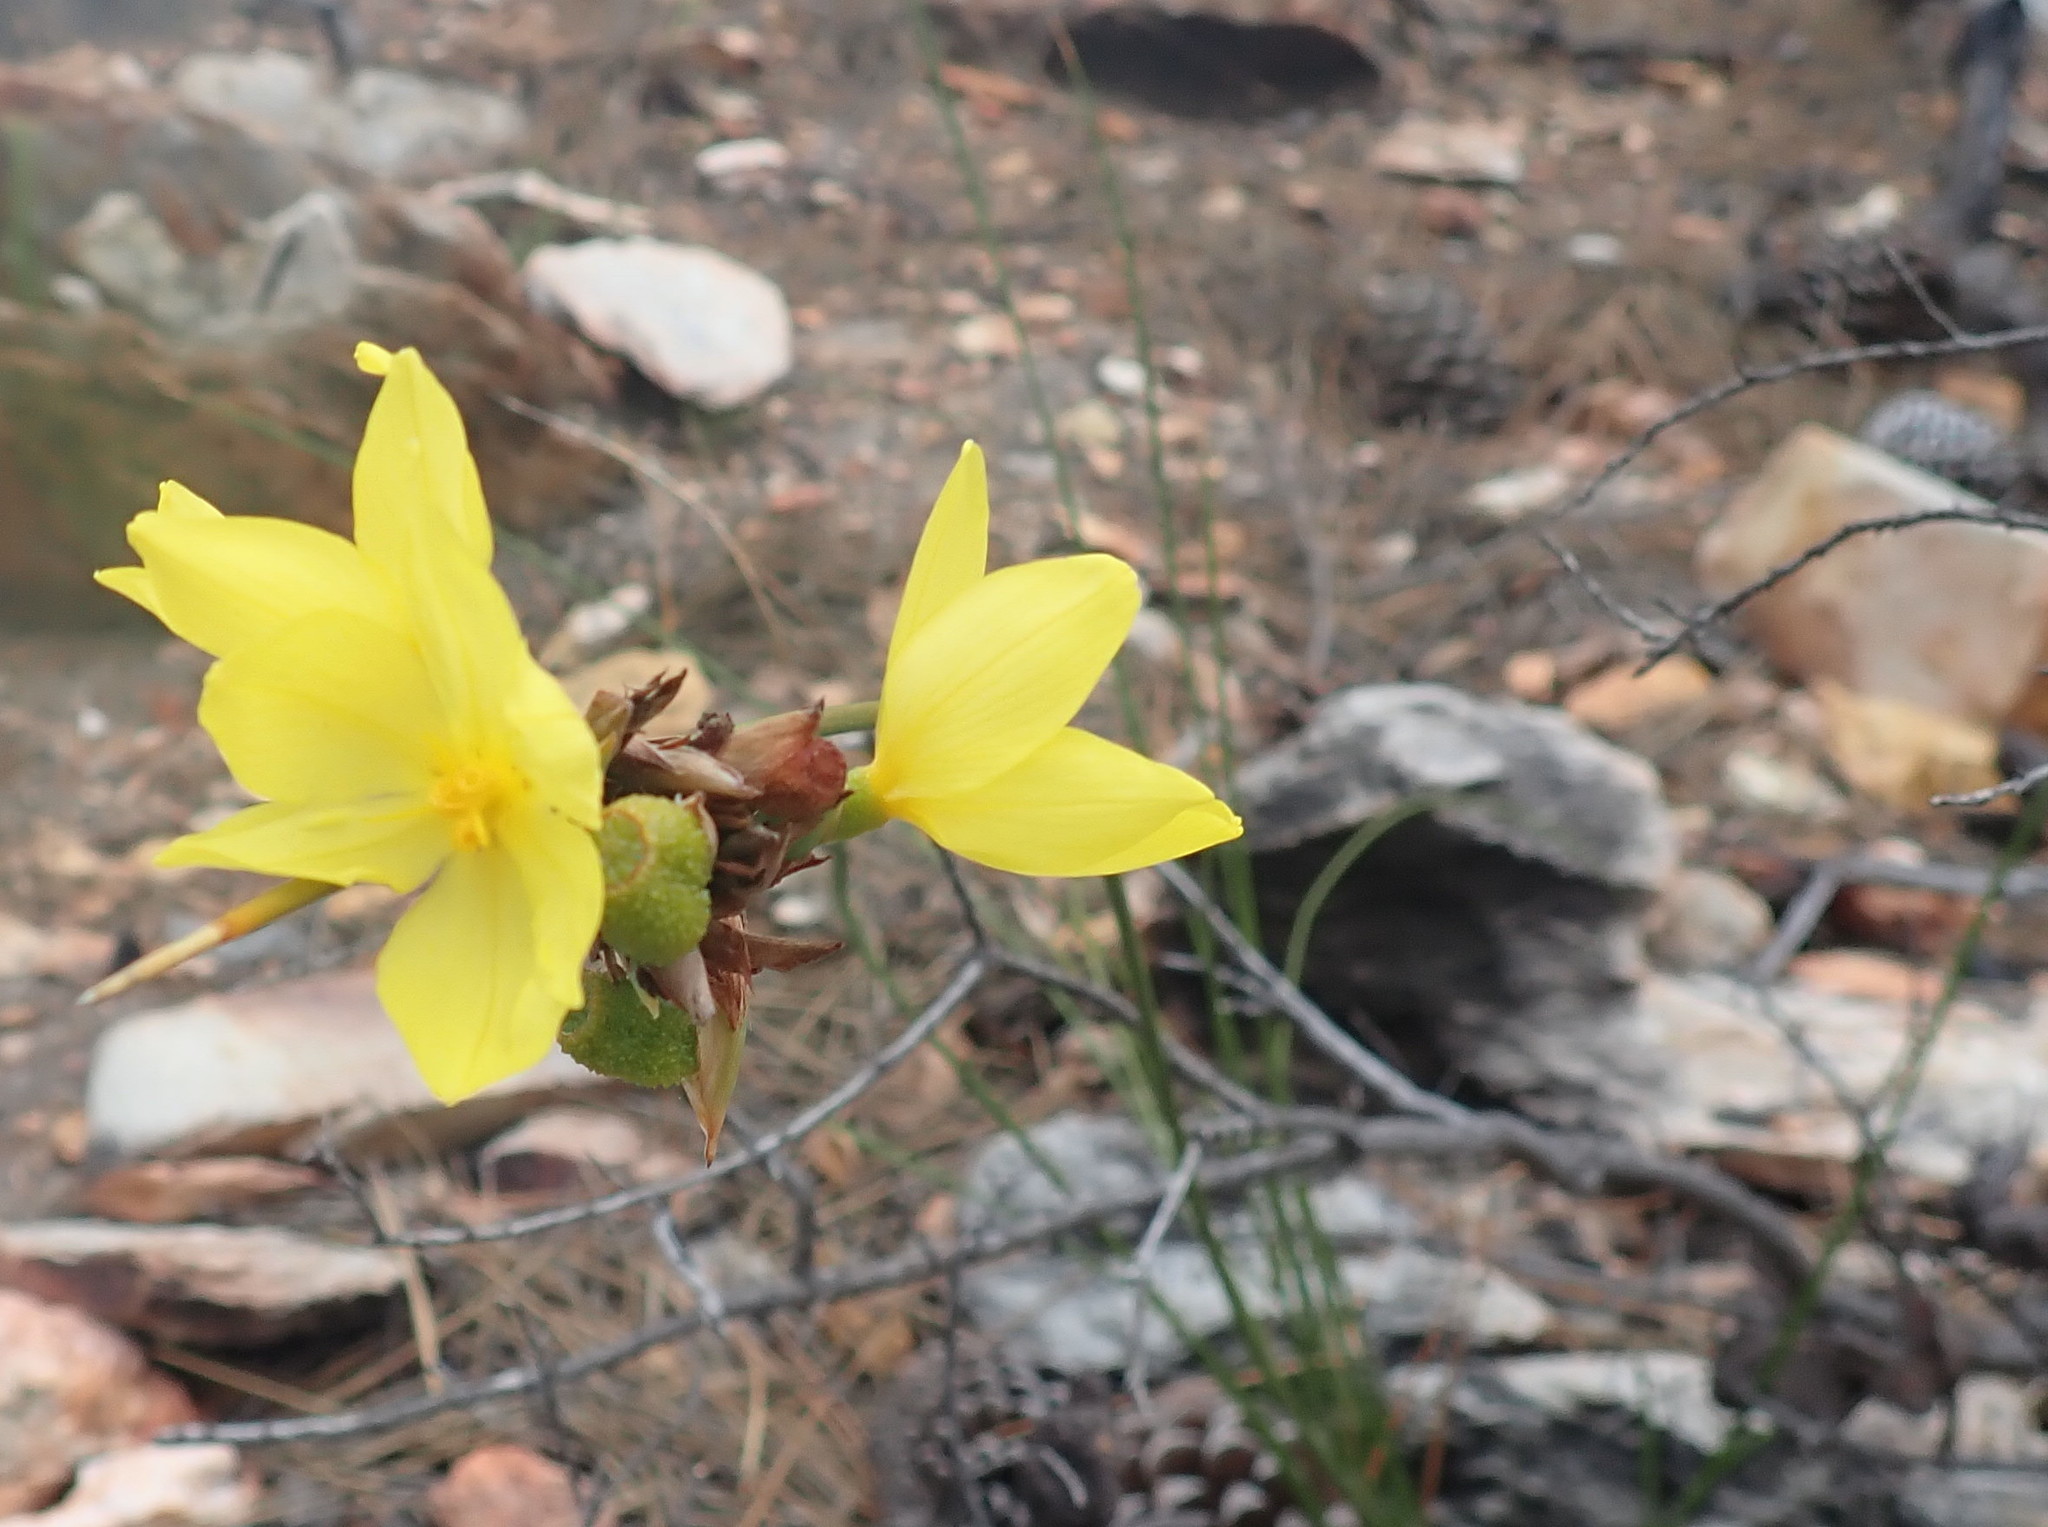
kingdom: Plantae
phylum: Tracheophyta
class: Liliopsida
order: Asparagales
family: Iridaceae
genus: Bobartia
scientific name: Bobartia aphylla
